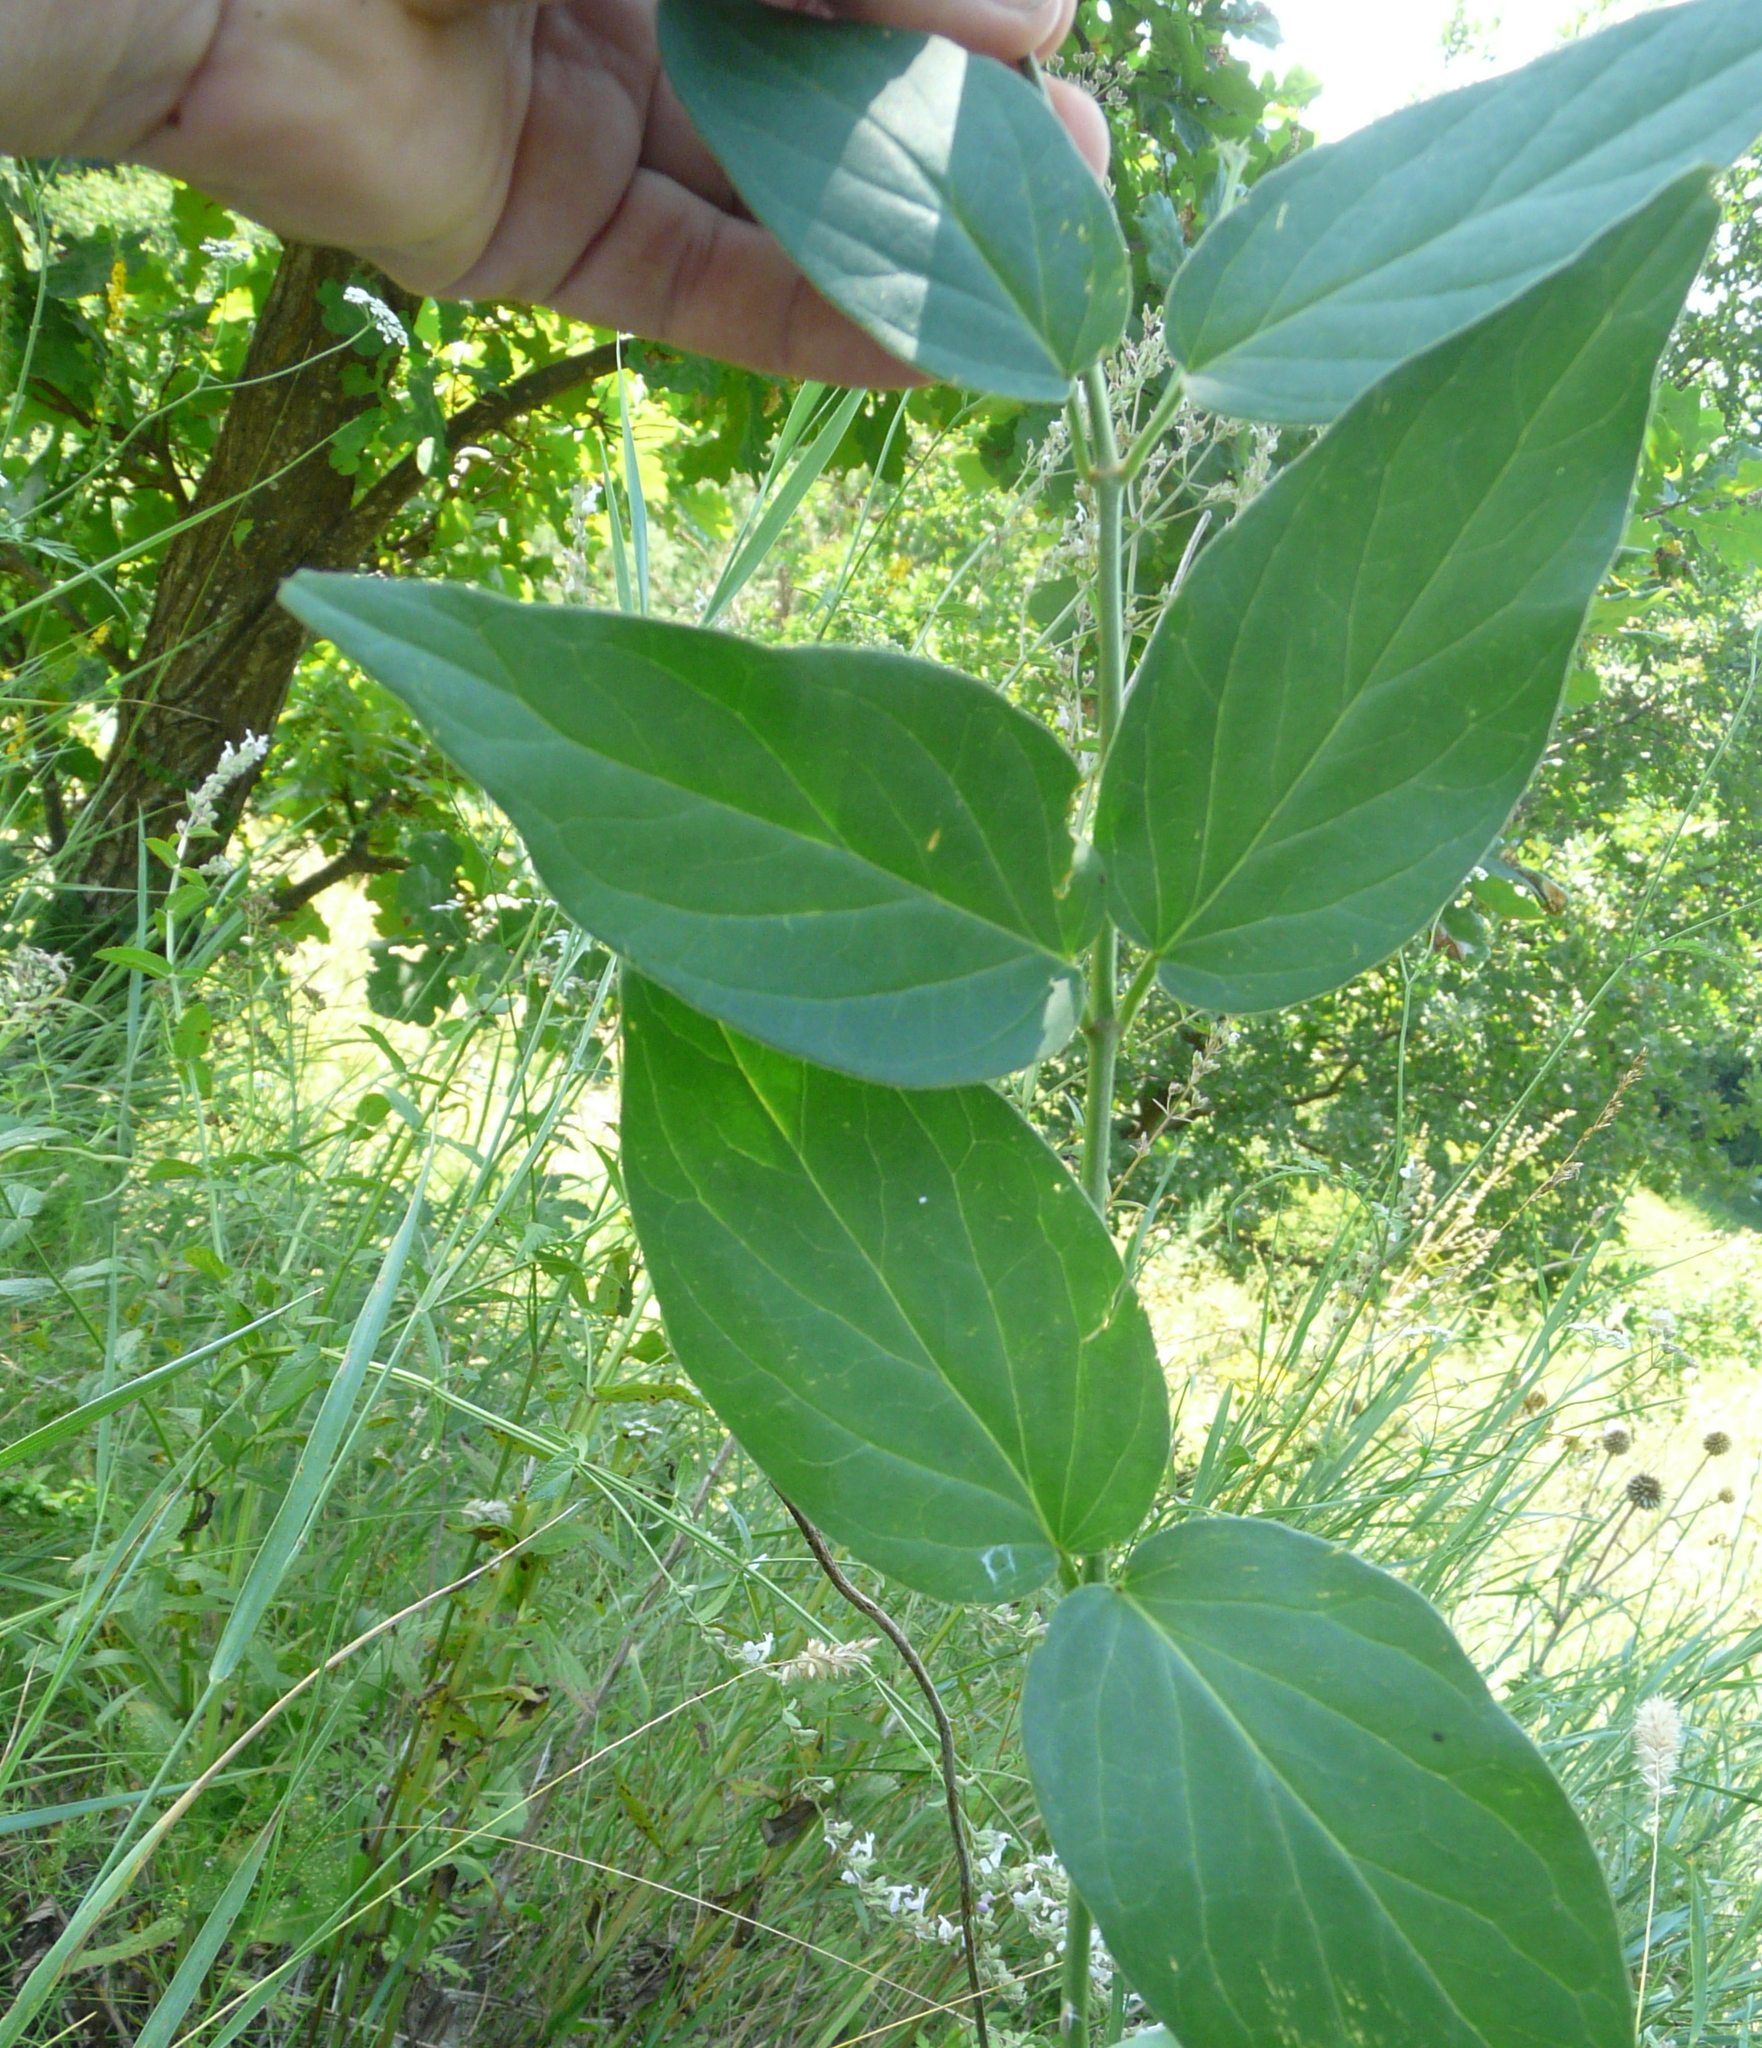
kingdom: Plantae
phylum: Tracheophyta
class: Magnoliopsida
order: Gentianales
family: Apocynaceae
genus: Vincetoxicum
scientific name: Vincetoxicum hirundinaria
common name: White swallowwort
